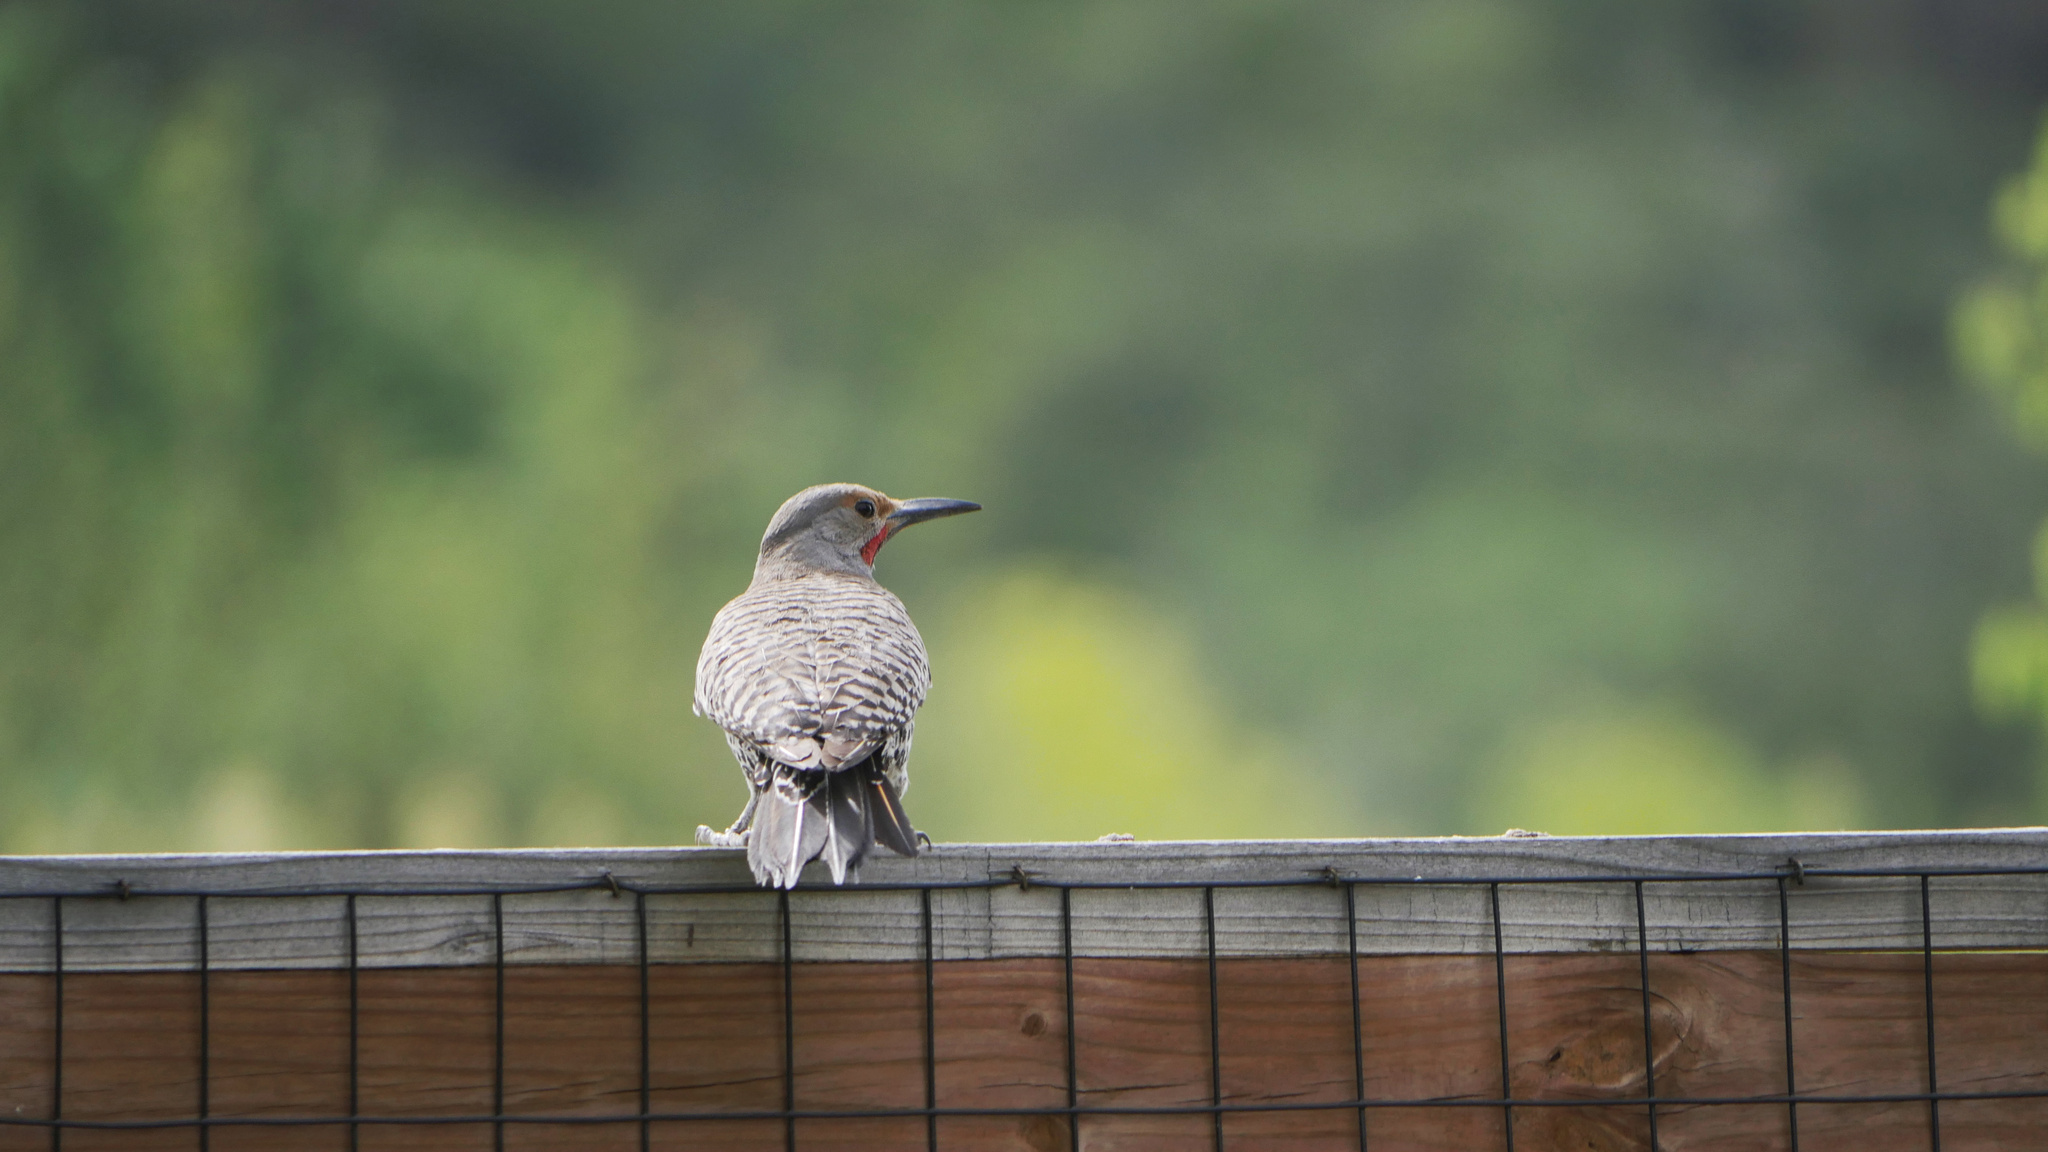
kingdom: Animalia
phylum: Chordata
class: Aves
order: Piciformes
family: Picidae
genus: Colaptes
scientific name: Colaptes auratus
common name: Northern flicker
